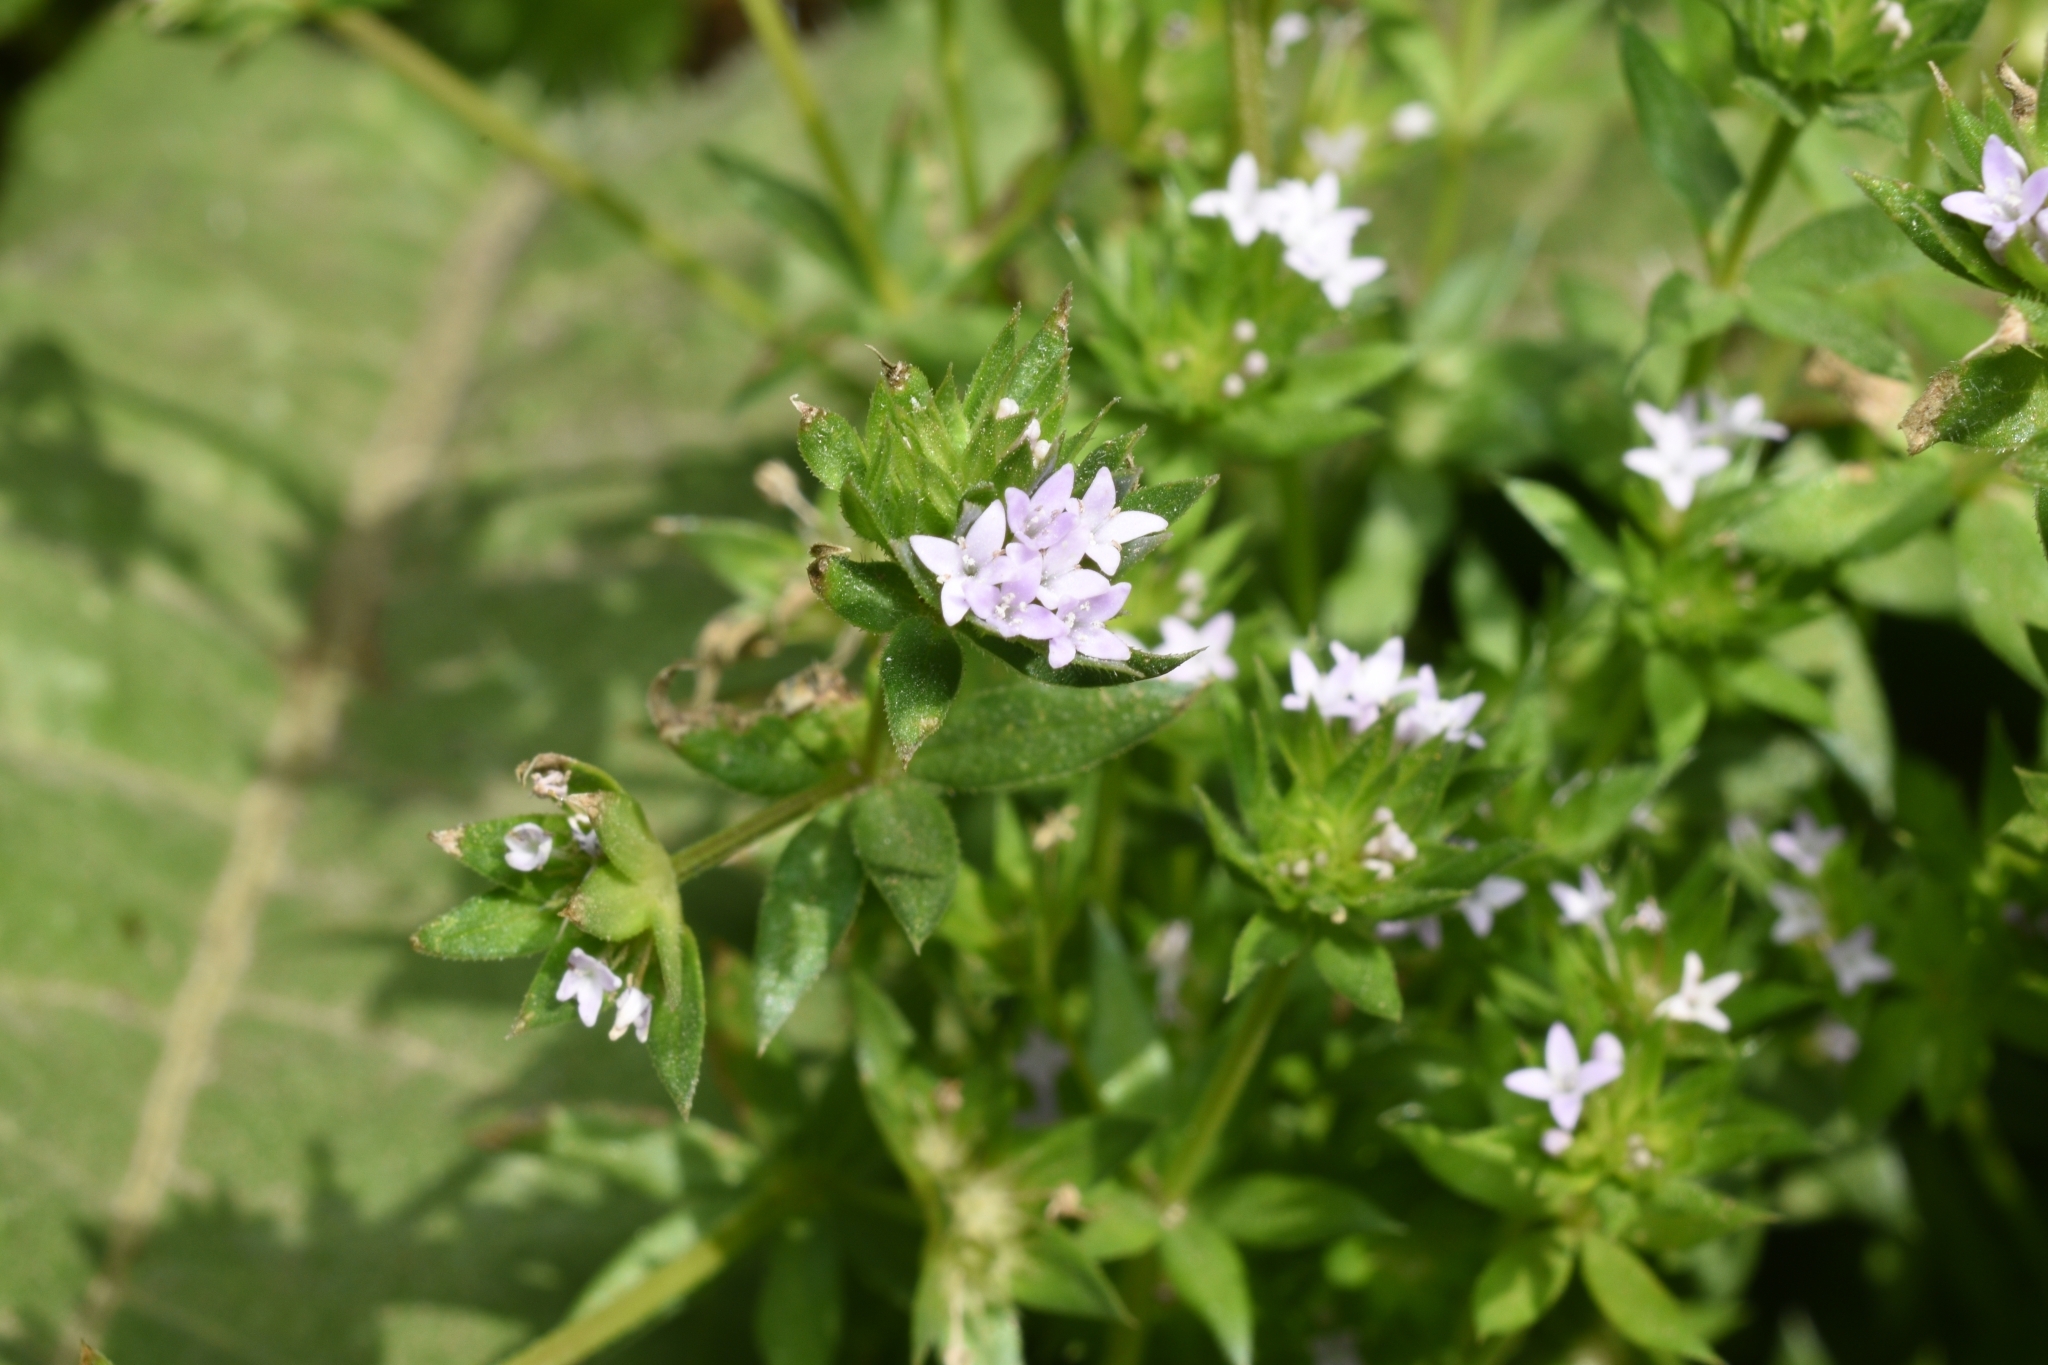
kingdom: Plantae
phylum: Tracheophyta
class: Magnoliopsida
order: Gentianales
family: Rubiaceae
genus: Sherardia
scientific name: Sherardia arvensis
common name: Field madder
